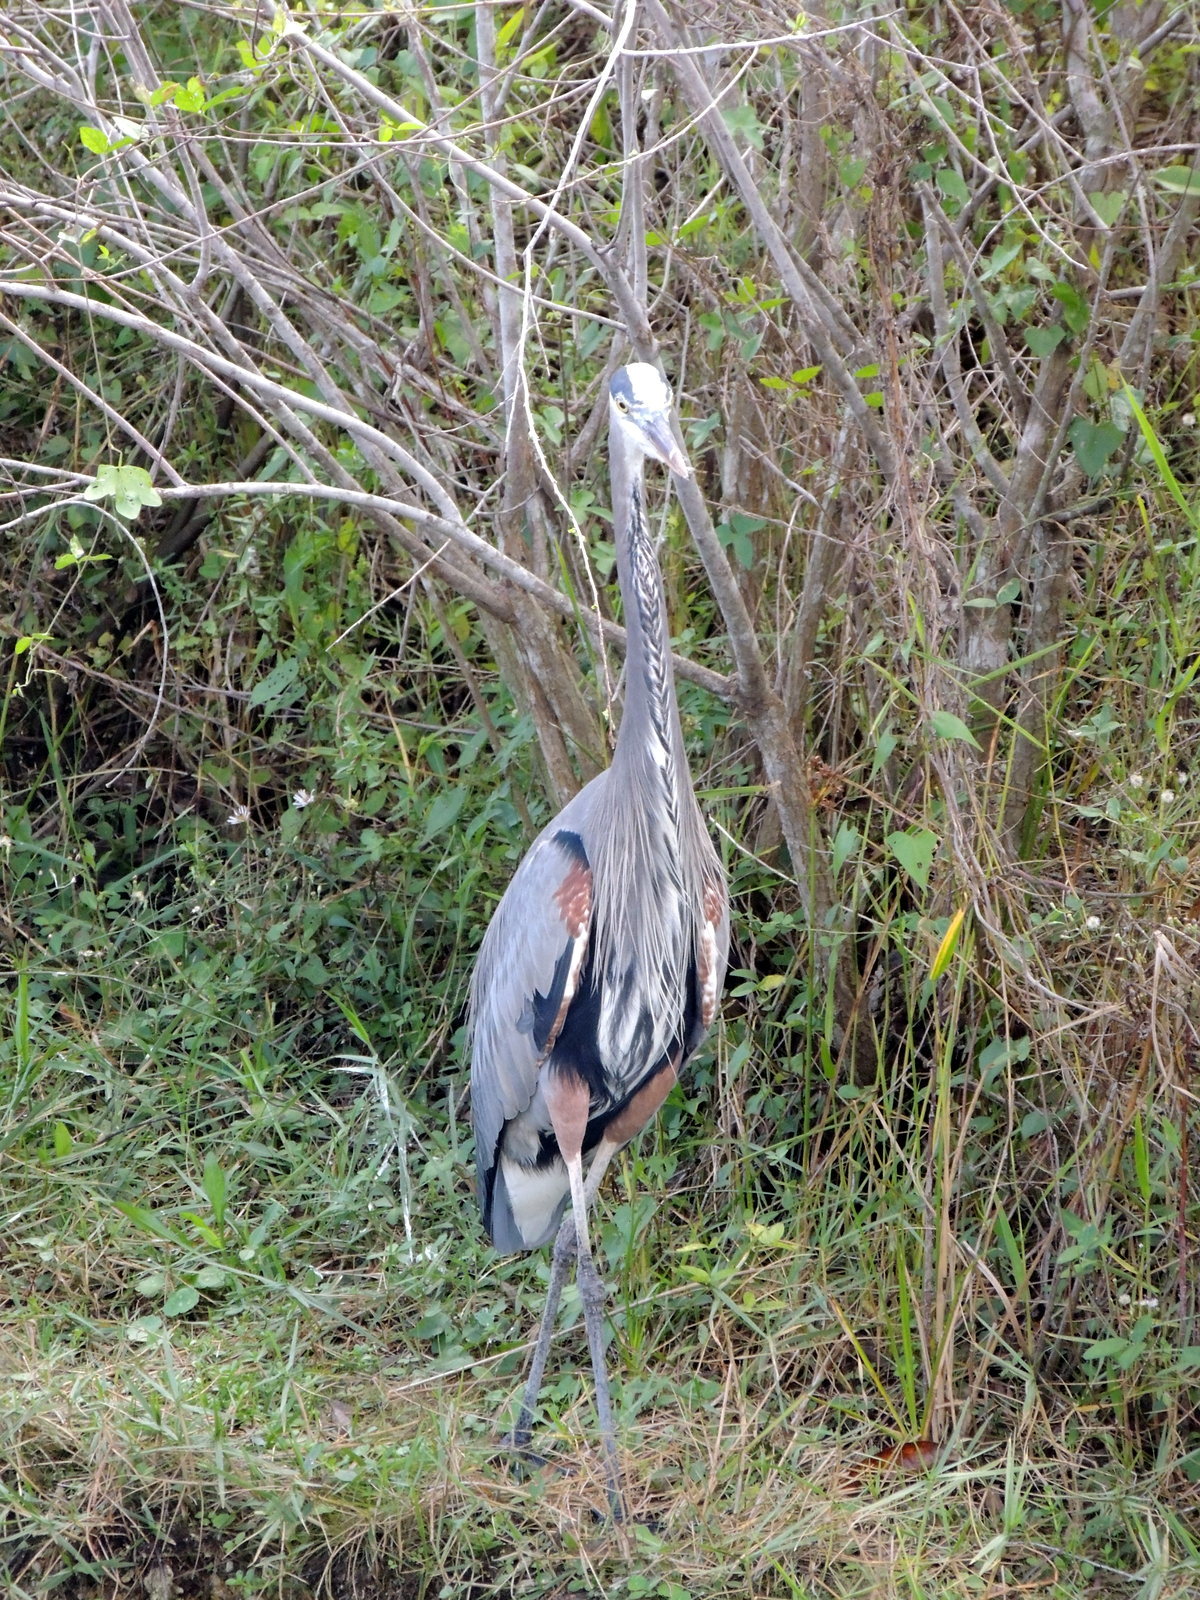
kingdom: Animalia
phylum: Chordata
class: Aves
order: Pelecaniformes
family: Ardeidae
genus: Ardea
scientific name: Ardea herodias
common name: Great blue heron
